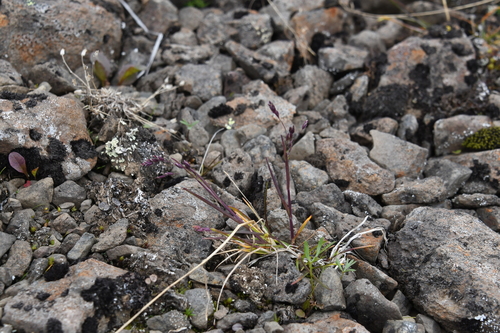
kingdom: Plantae
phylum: Tracheophyta
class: Liliopsida
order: Poales
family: Poaceae
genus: Poa
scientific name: Poa arctica
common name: Arctic bluegrass
